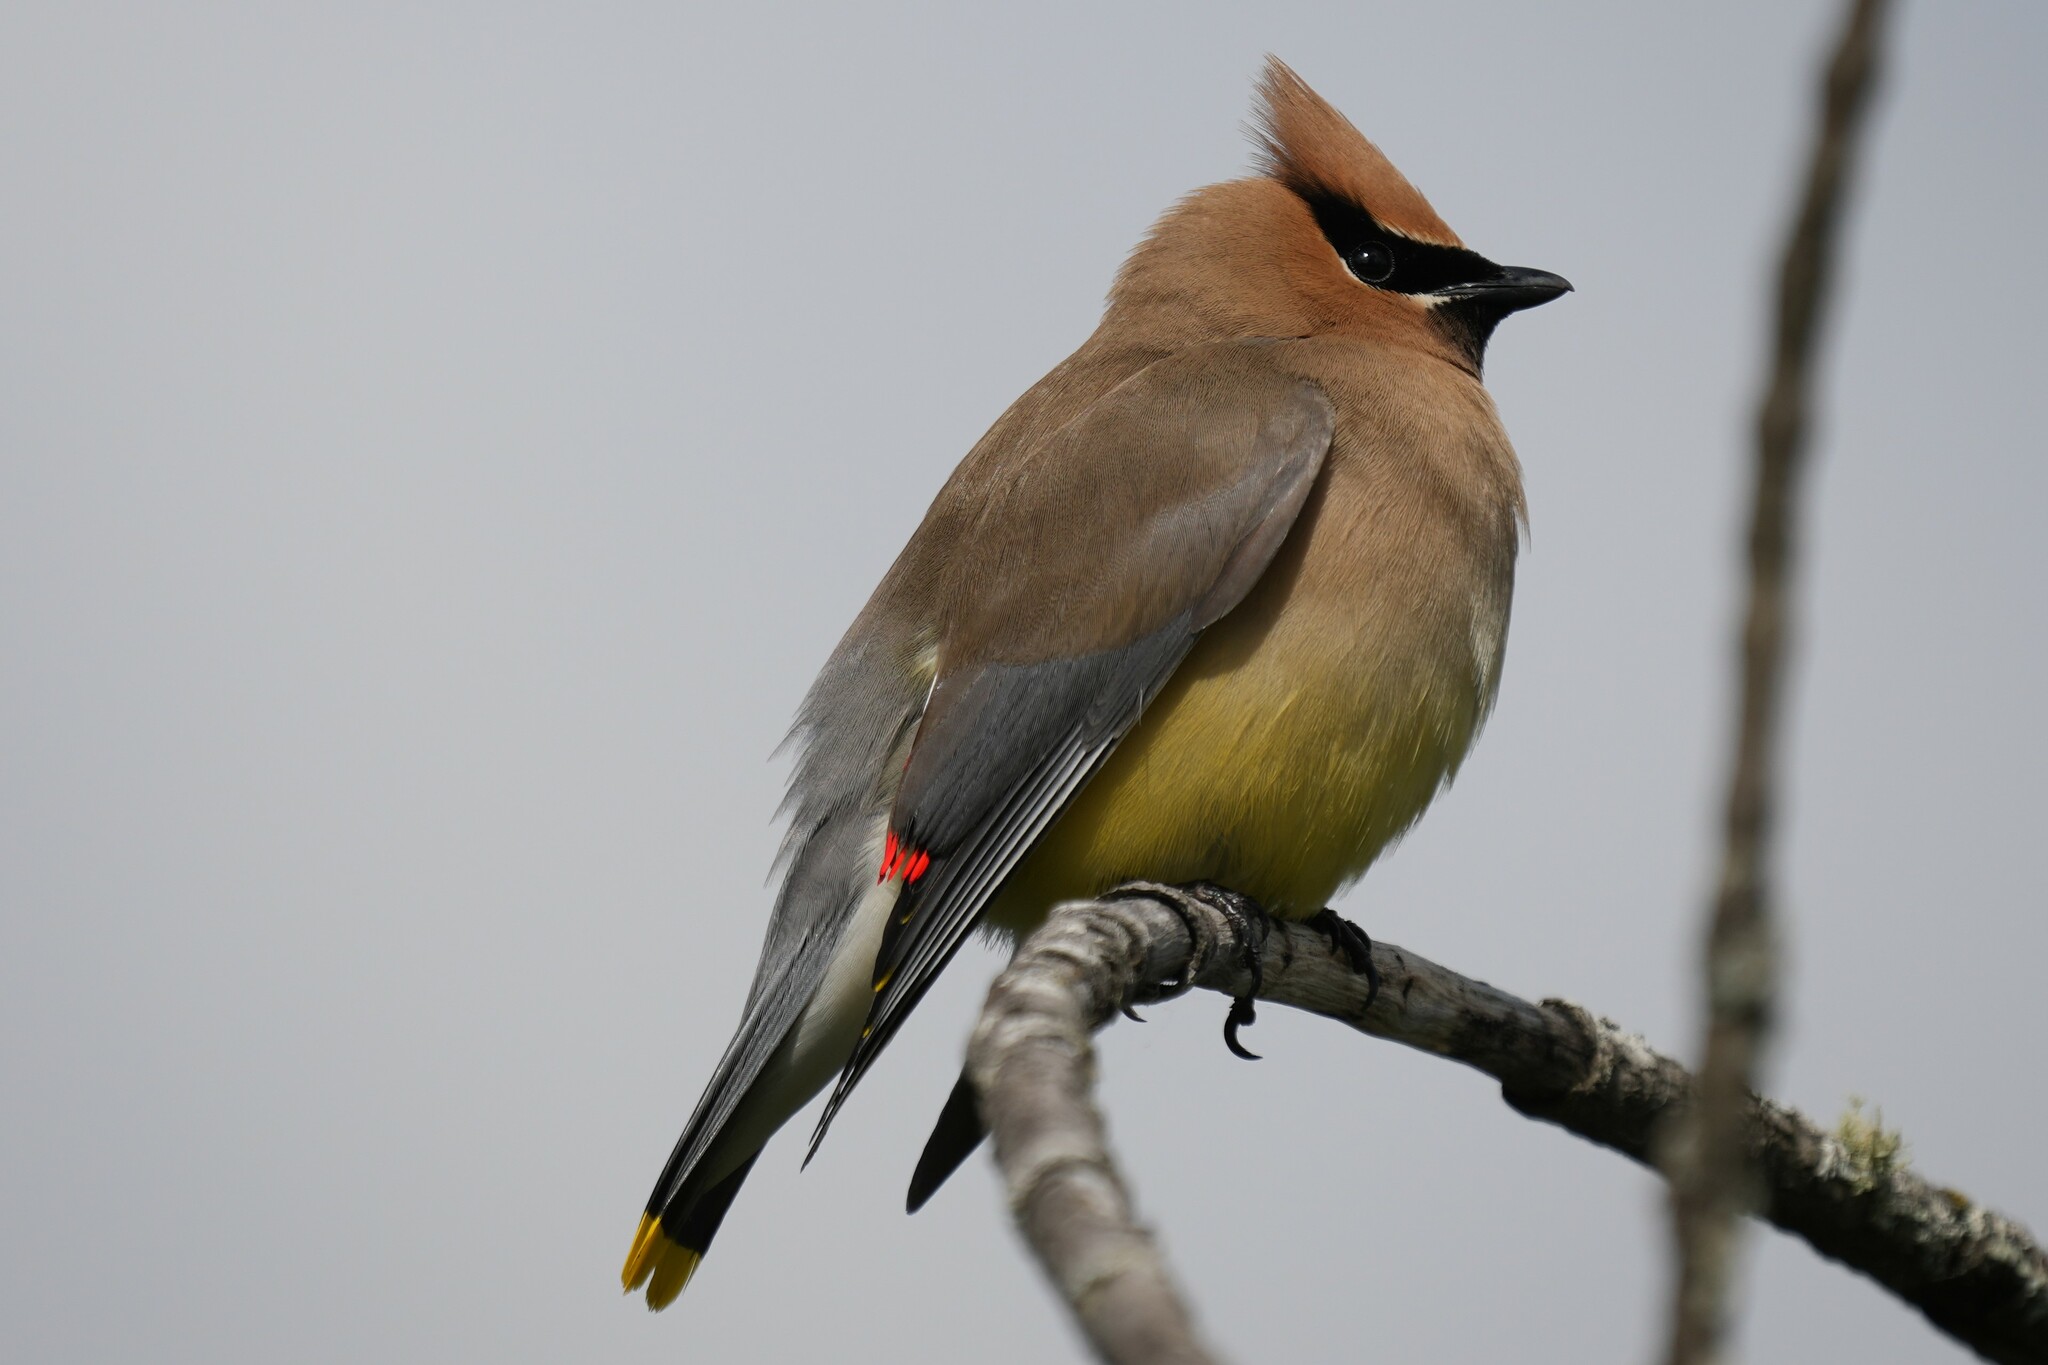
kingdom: Animalia
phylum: Chordata
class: Aves
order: Passeriformes
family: Bombycillidae
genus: Bombycilla
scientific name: Bombycilla cedrorum
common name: Cedar waxwing
